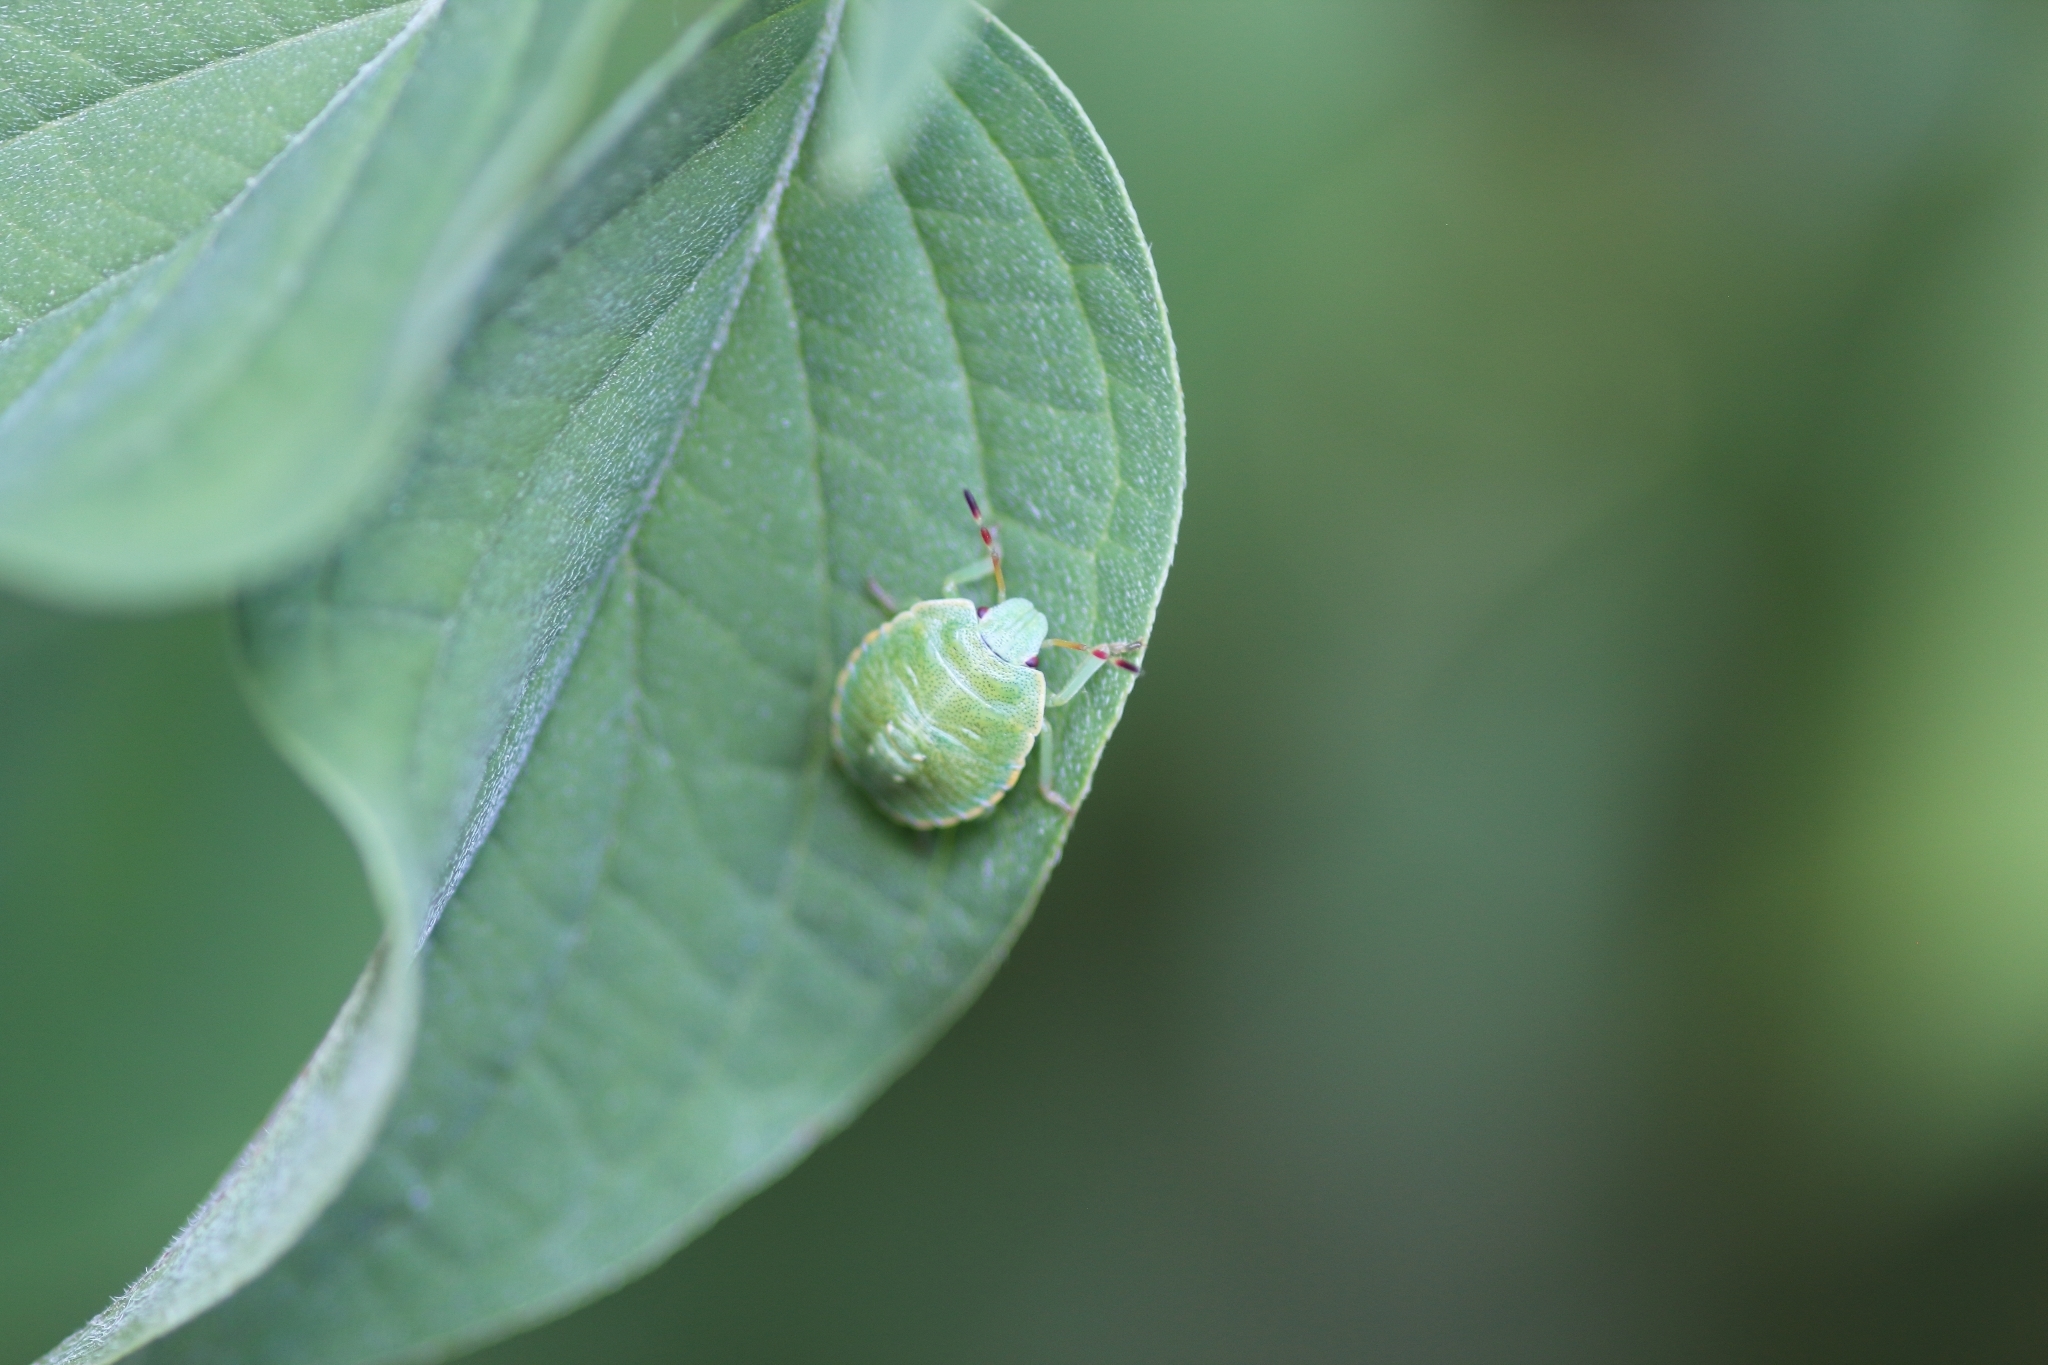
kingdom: Animalia
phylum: Arthropoda
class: Insecta
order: Hemiptera
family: Pentatomidae
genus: Palomena
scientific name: Palomena prasina
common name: Green shieldbug
